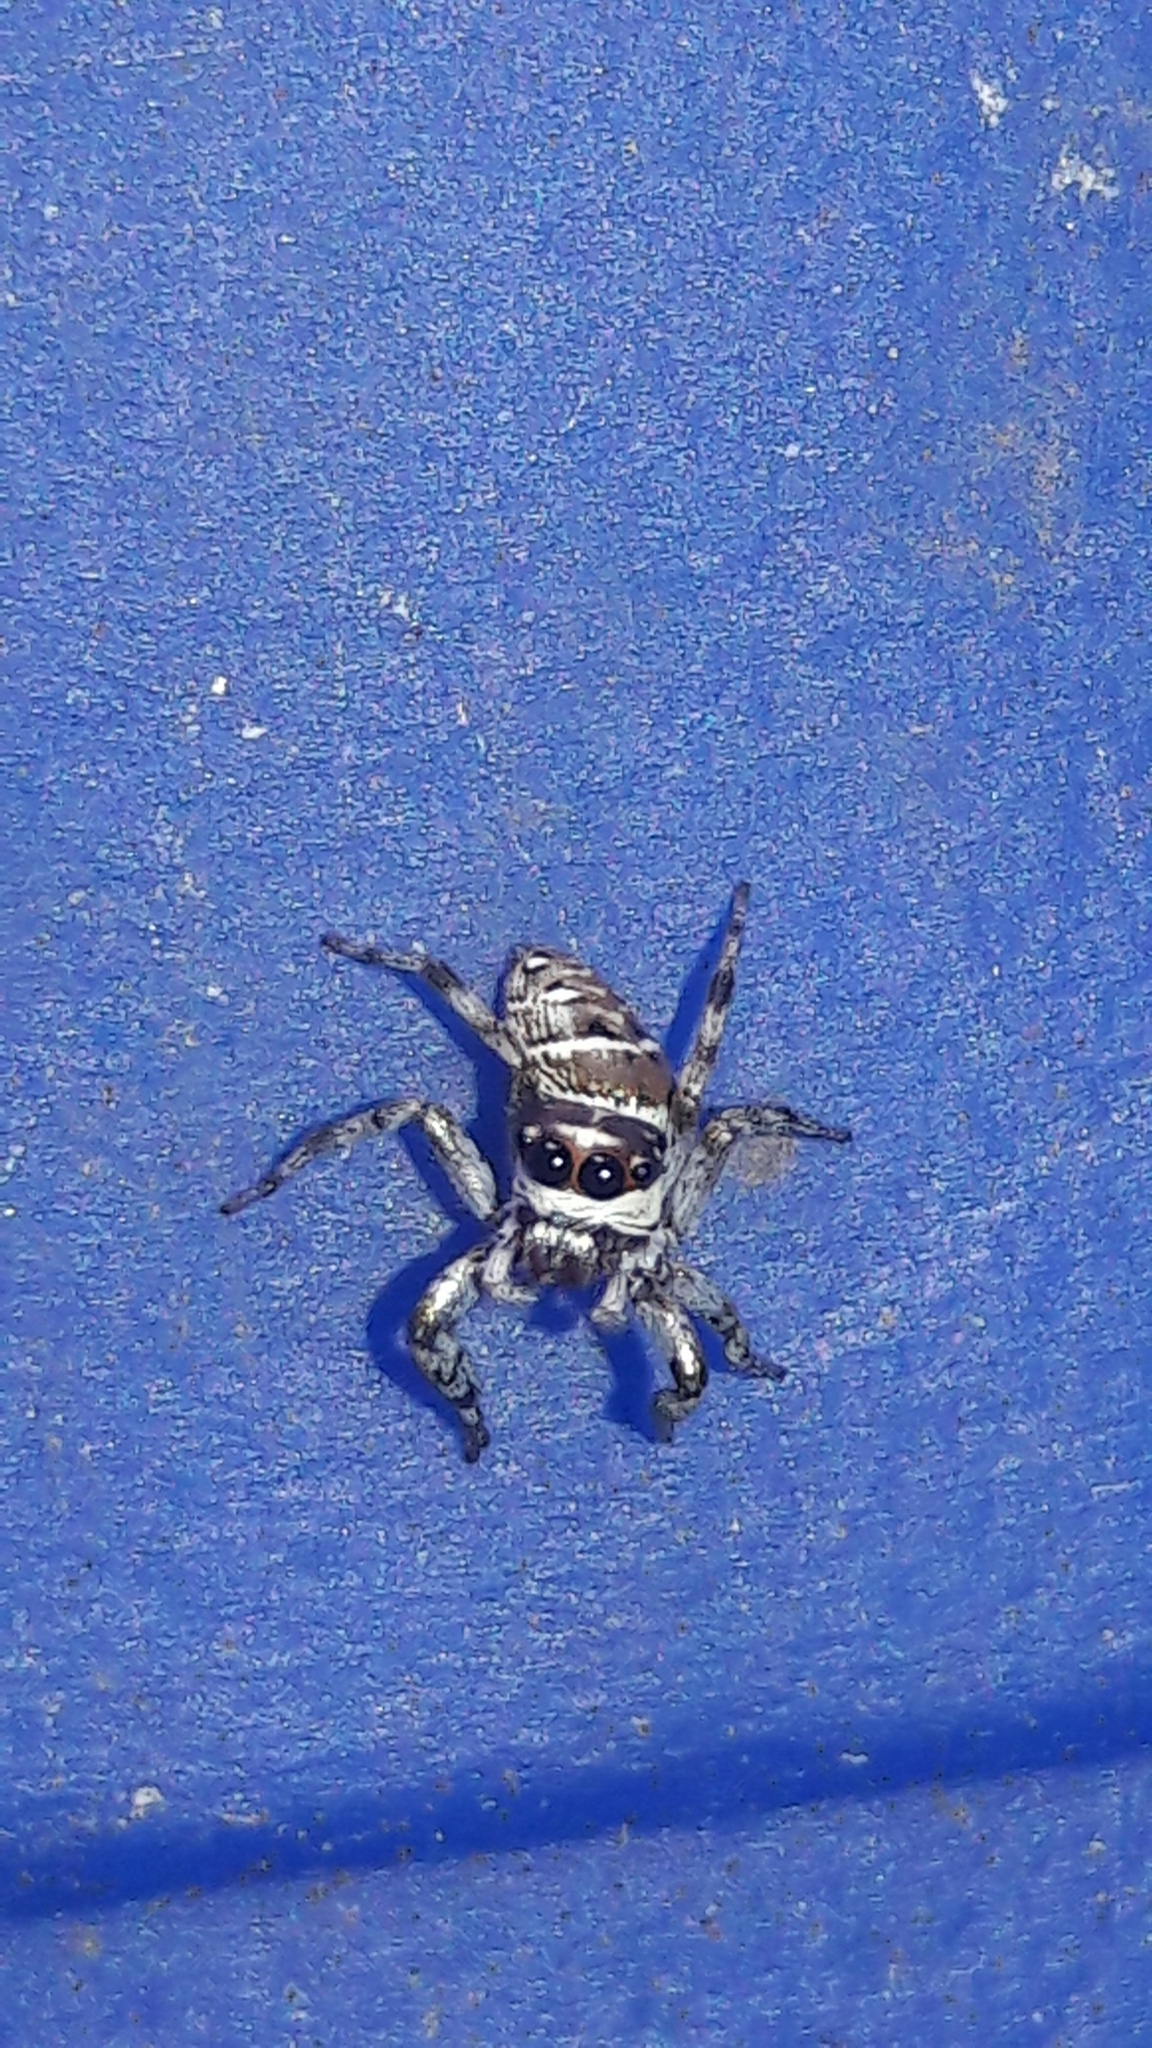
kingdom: Animalia
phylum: Arthropoda
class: Arachnida
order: Araneae
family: Salticidae
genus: Philira
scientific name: Philira micans
